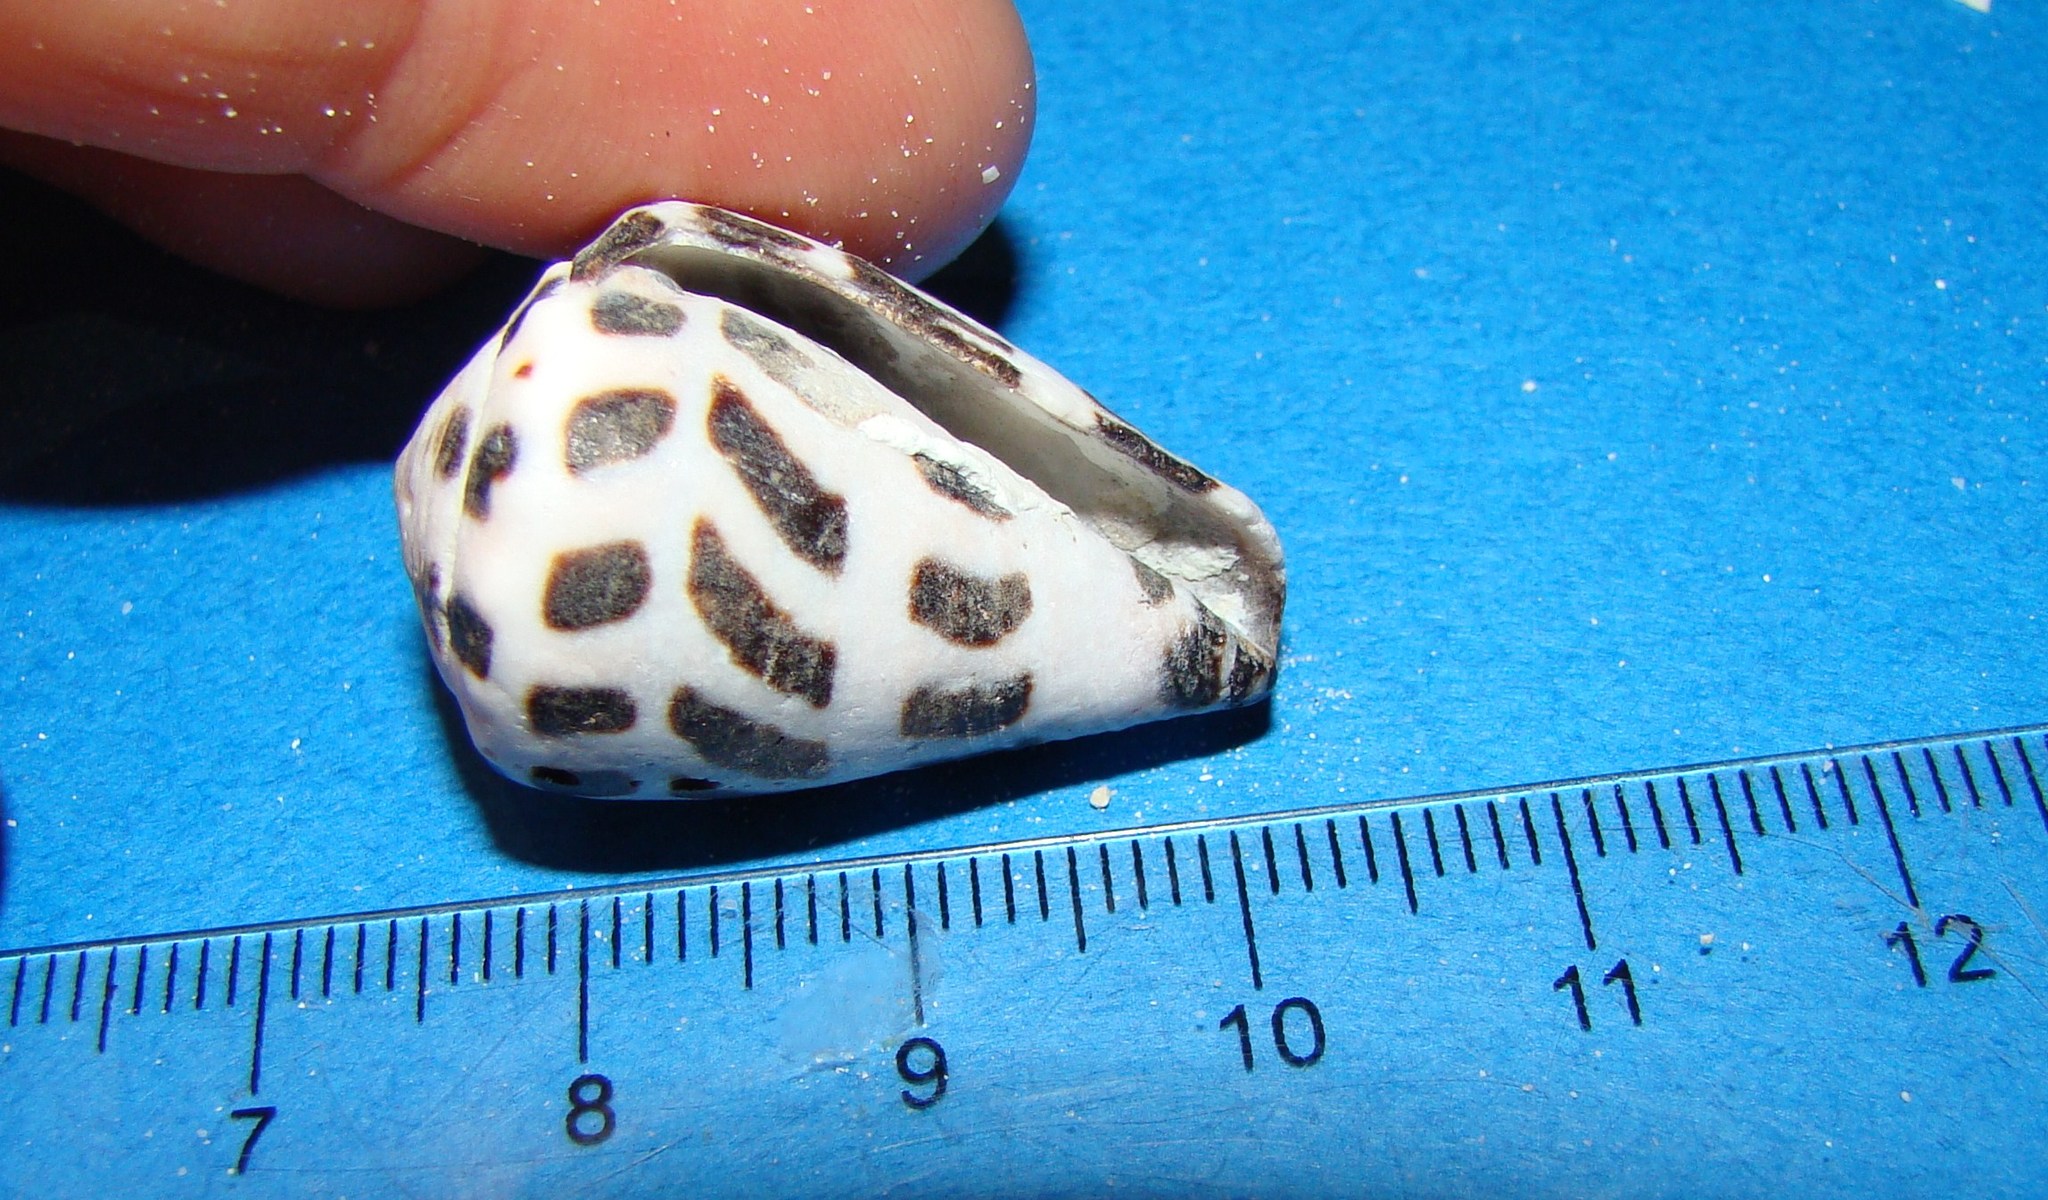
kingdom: Animalia
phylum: Mollusca
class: Gastropoda
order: Neogastropoda
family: Conidae
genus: Conus
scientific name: Conus ebraeus
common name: Hebrew cone
